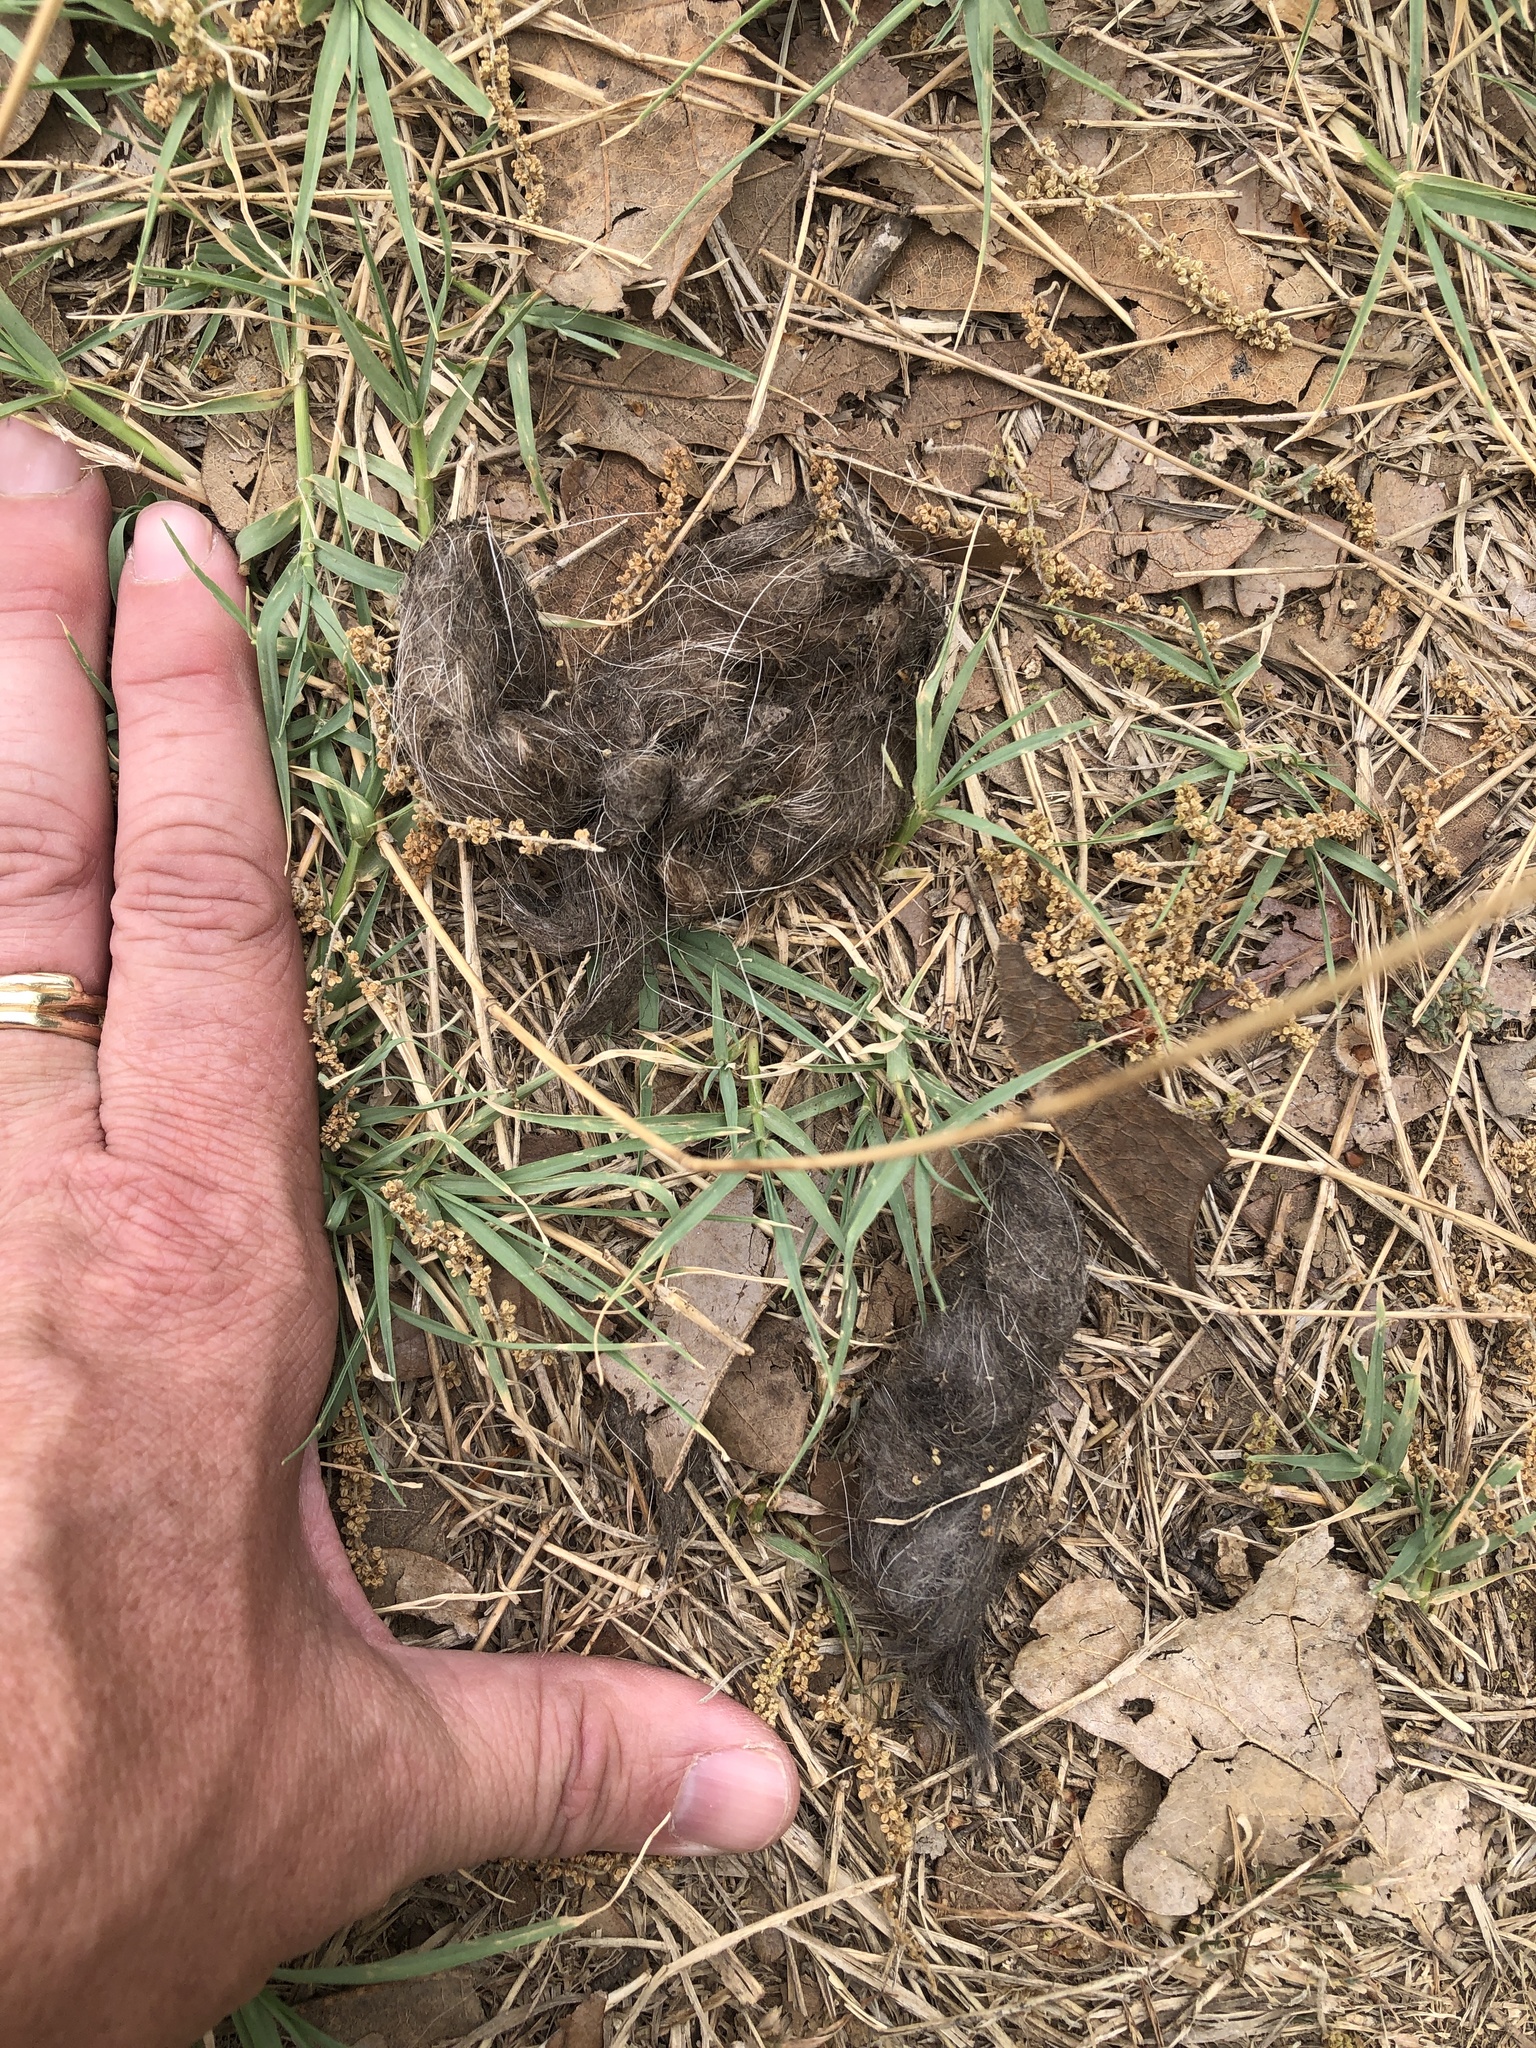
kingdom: Animalia
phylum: Chordata
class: Mammalia
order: Carnivora
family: Canidae
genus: Canis
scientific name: Canis latrans
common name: Coyote
